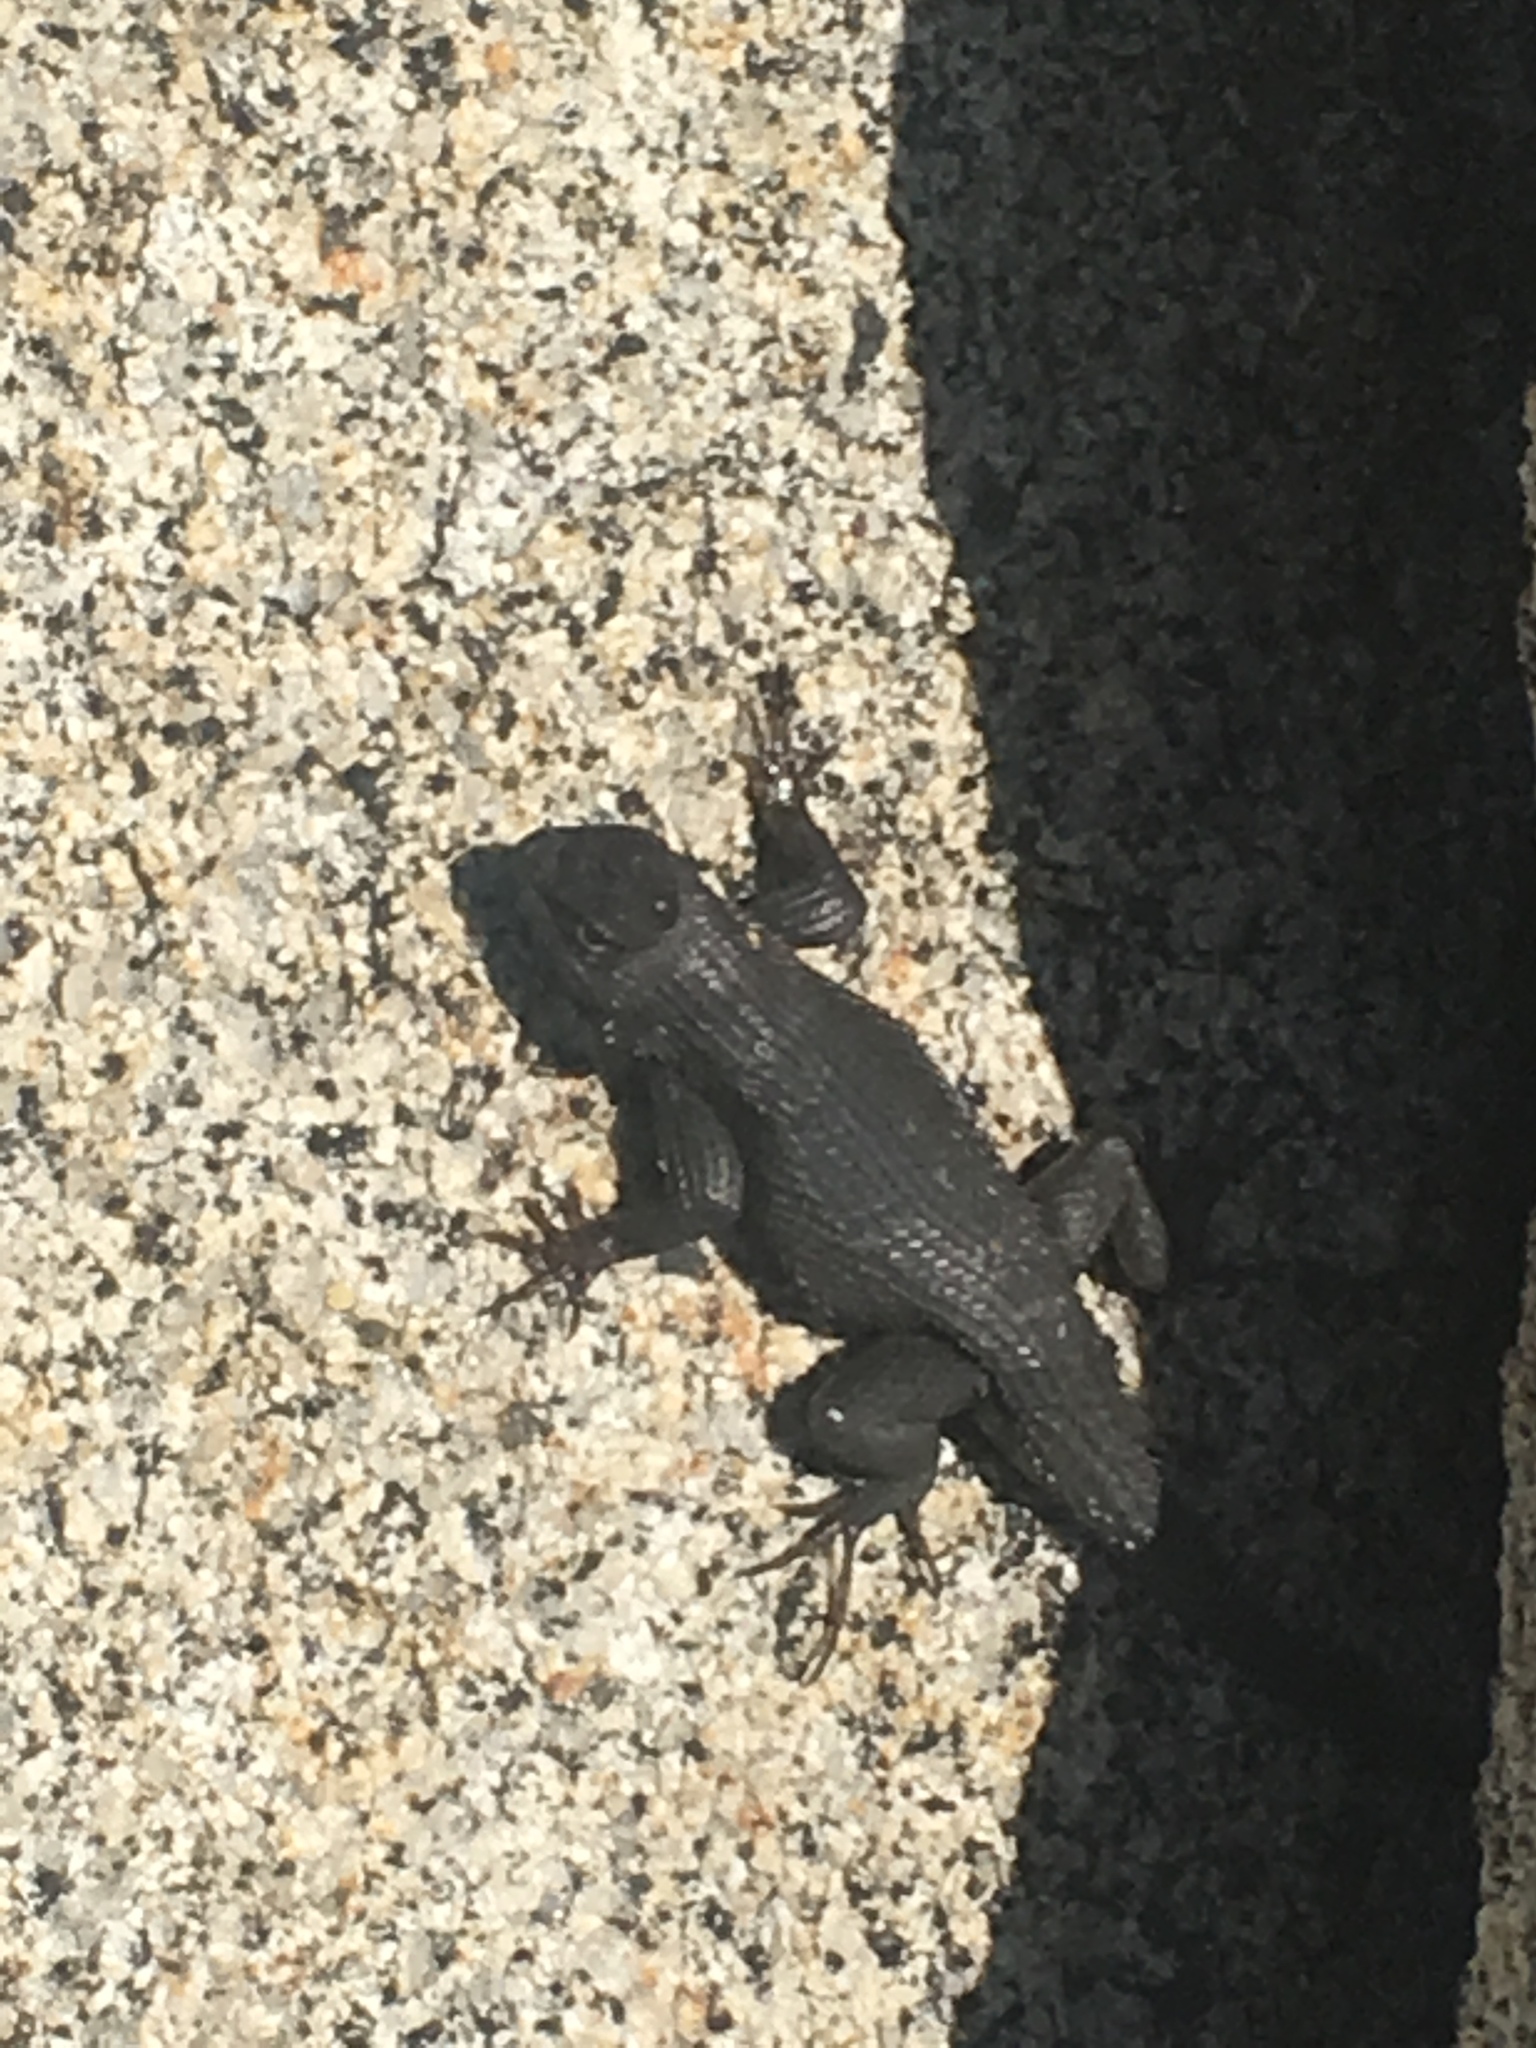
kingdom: Animalia
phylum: Chordata
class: Squamata
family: Phrynosomatidae
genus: Sceloporus
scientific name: Sceloporus occidentalis
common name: Western fence lizard
